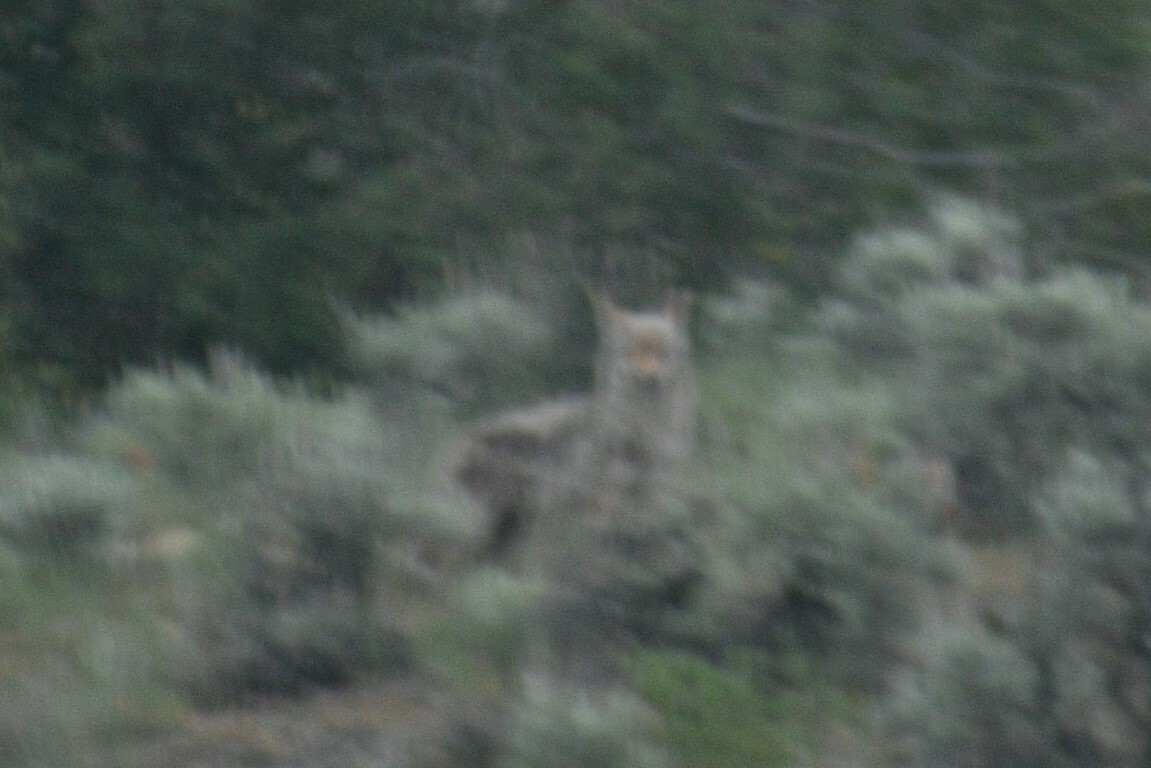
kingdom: Animalia
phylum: Chordata
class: Mammalia
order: Carnivora
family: Canidae
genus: Canis
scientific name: Canis latrans
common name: Coyote
